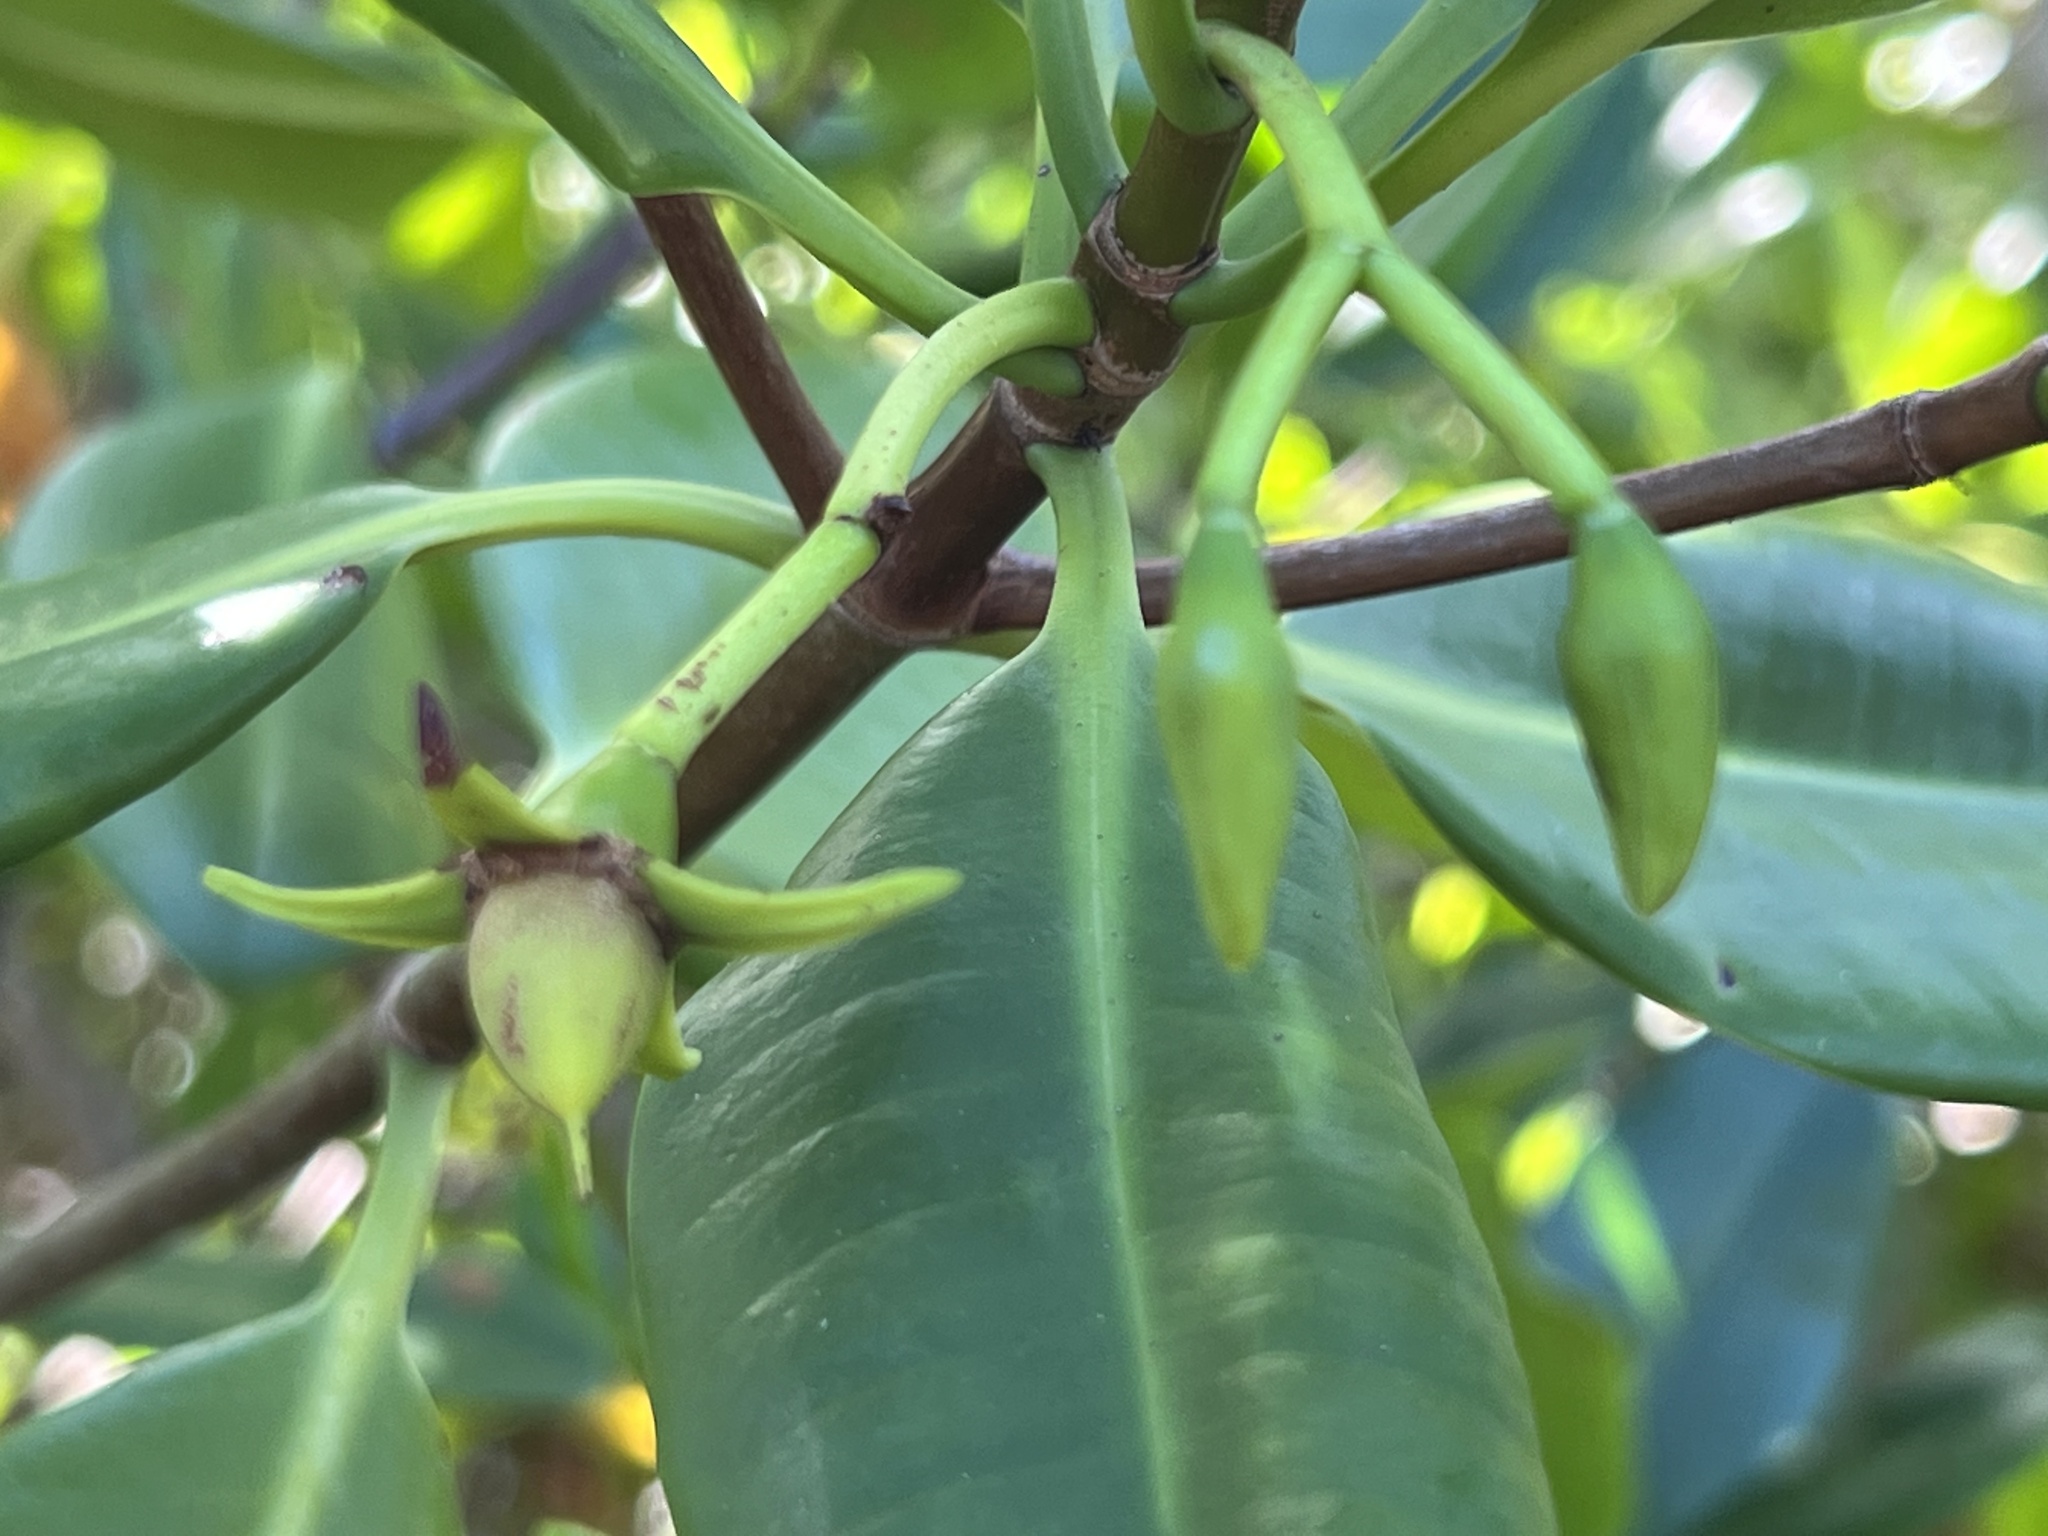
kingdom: Plantae
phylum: Tracheophyta
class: Magnoliopsida
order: Malpighiales
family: Rhizophoraceae
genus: Rhizophora
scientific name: Rhizophora mangle
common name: Red mangrove
